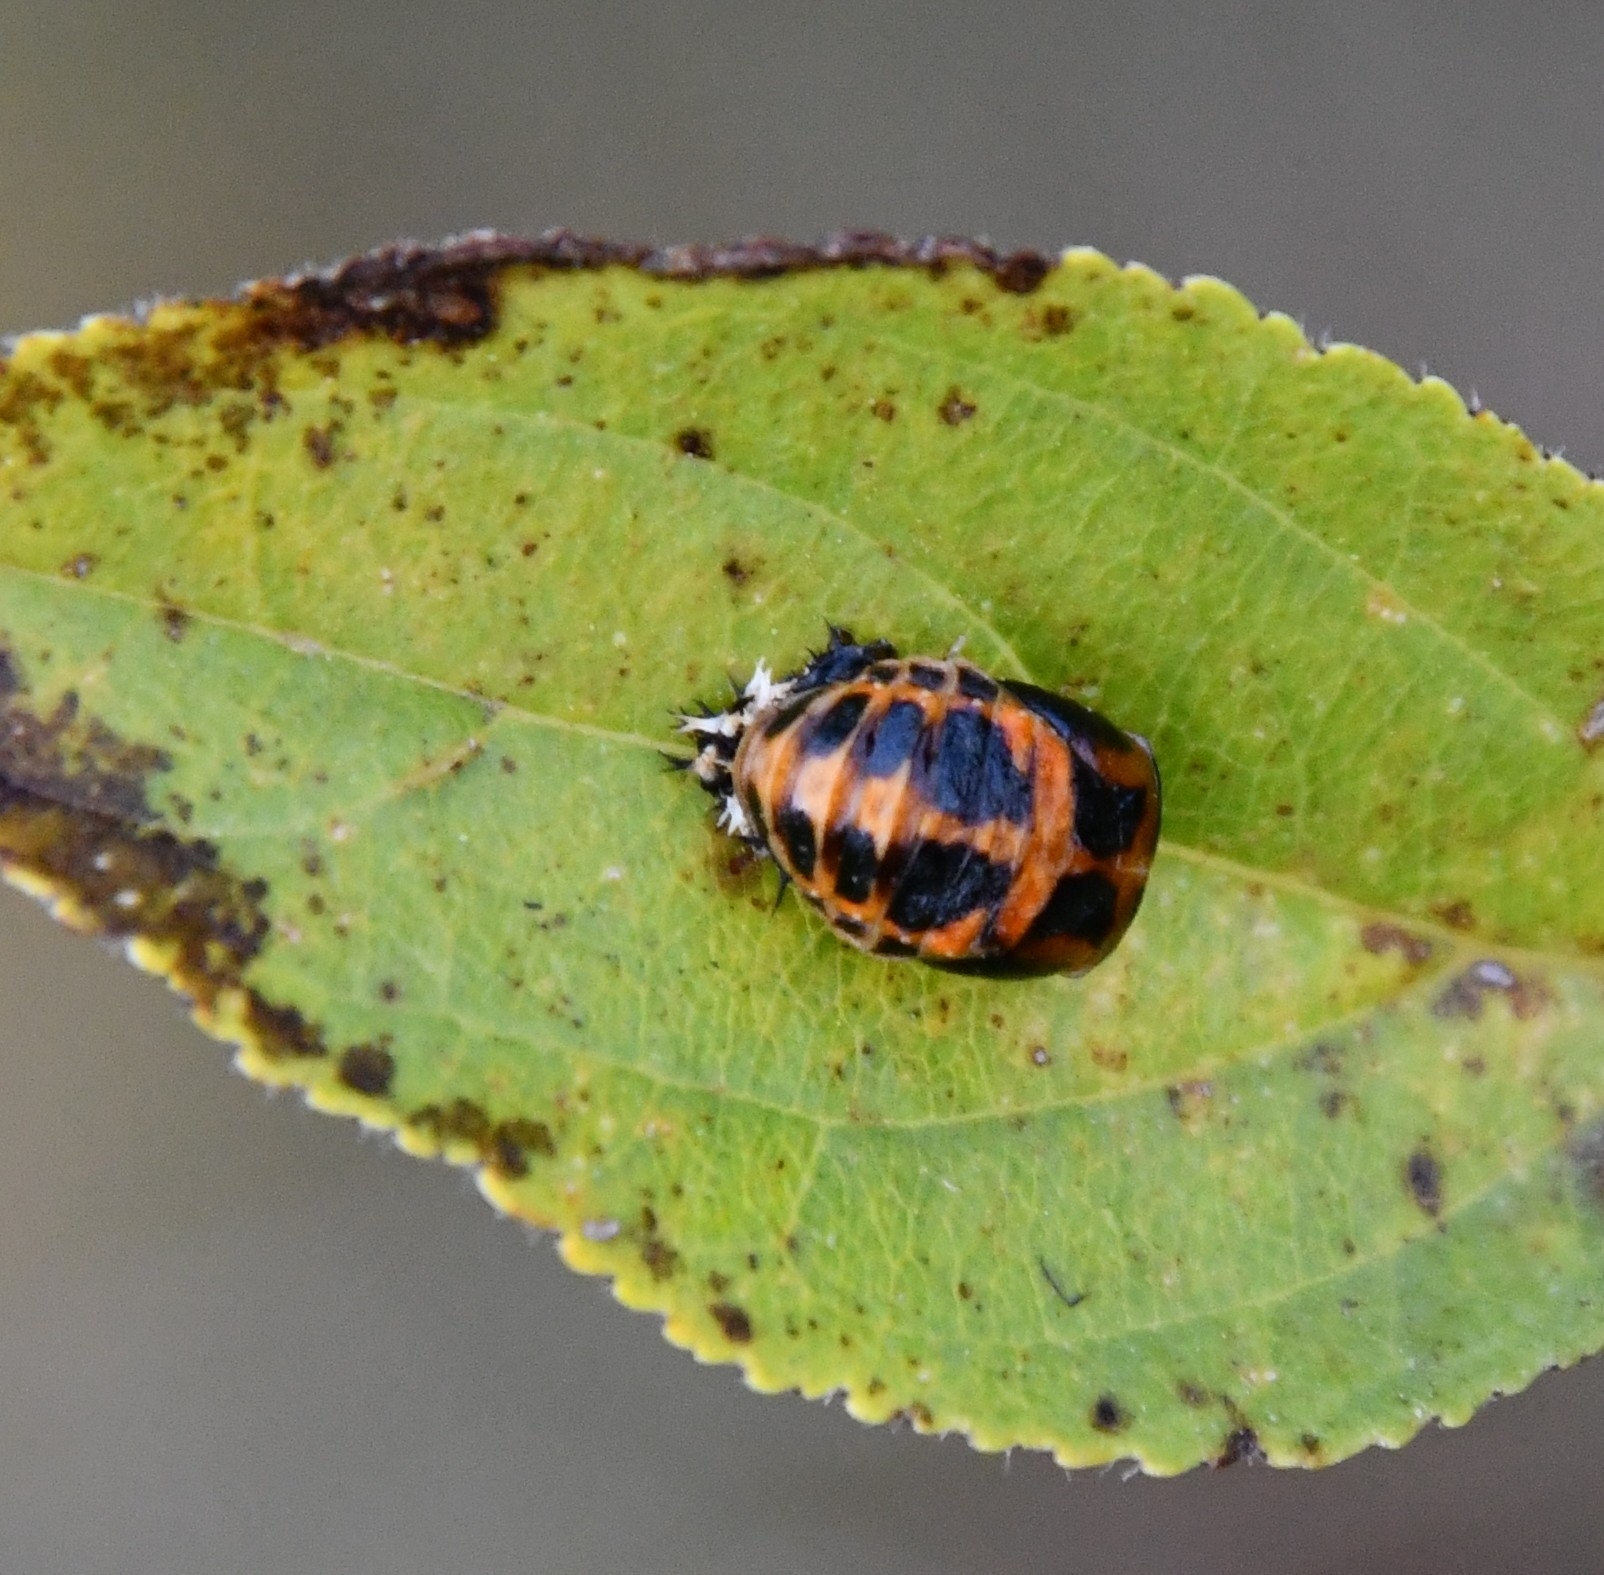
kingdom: Animalia
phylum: Arthropoda
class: Insecta
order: Coleoptera
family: Coccinellidae
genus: Harmonia
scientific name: Harmonia axyridis
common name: Harlequin ladybird
